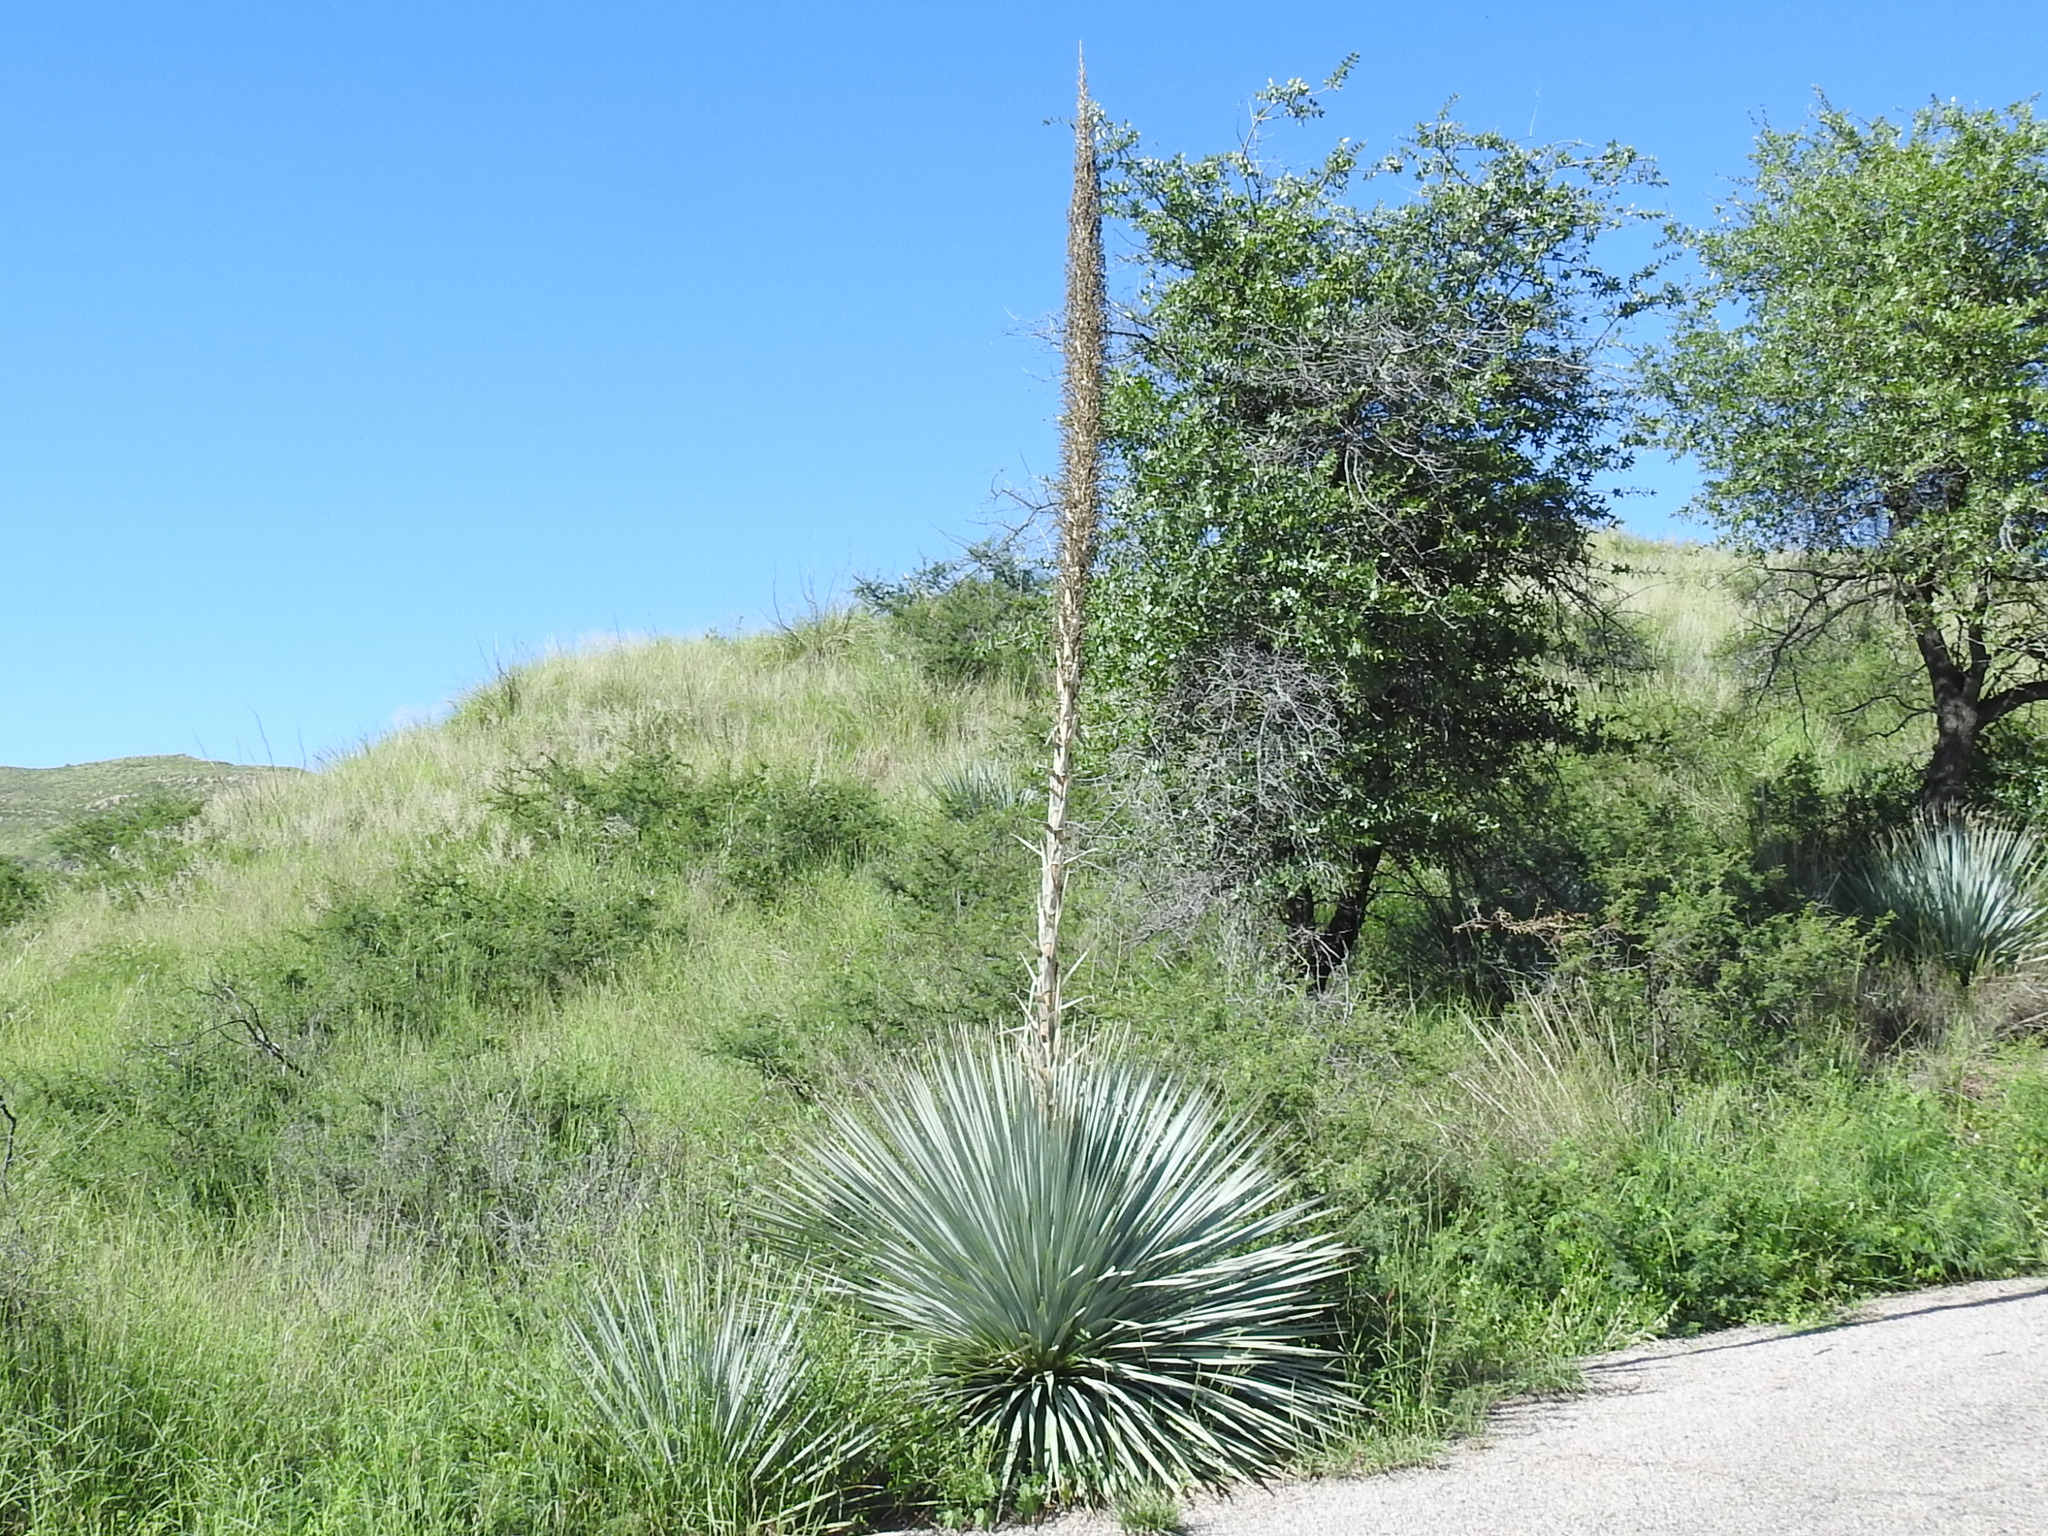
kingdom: Plantae
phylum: Tracheophyta
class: Liliopsida
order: Asparagales
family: Asparagaceae
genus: Dasylirion
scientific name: Dasylirion wheeleri
